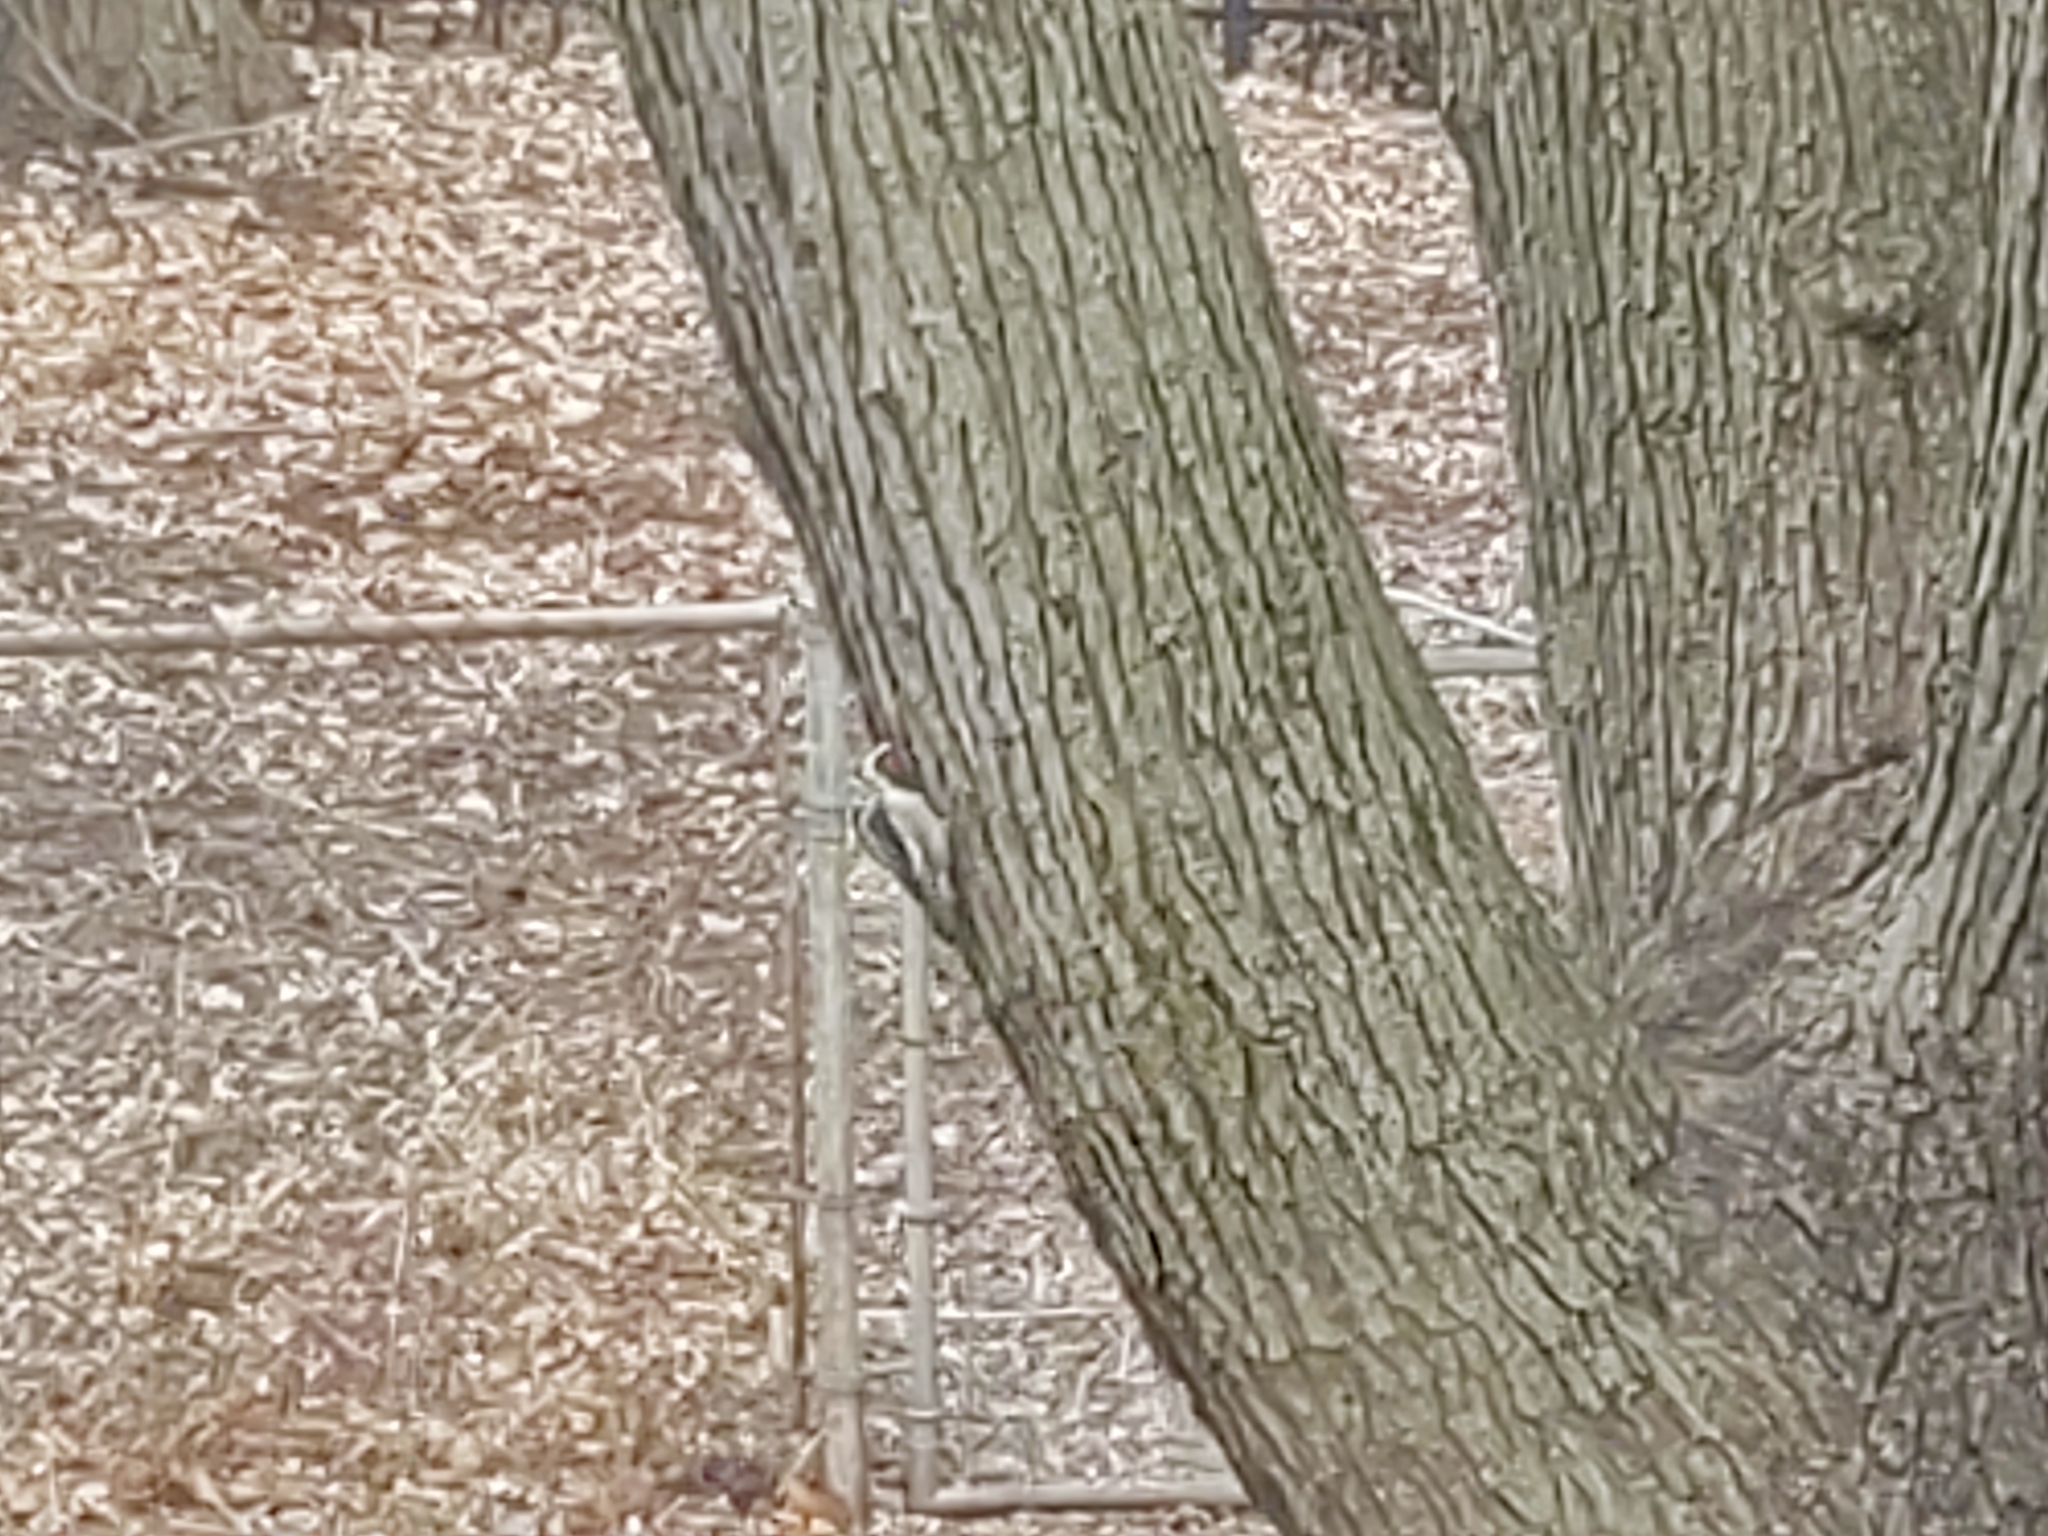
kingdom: Animalia
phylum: Chordata
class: Aves
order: Piciformes
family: Picidae
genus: Sphyrapicus
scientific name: Sphyrapicus varius
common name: Yellow-bellied sapsucker
